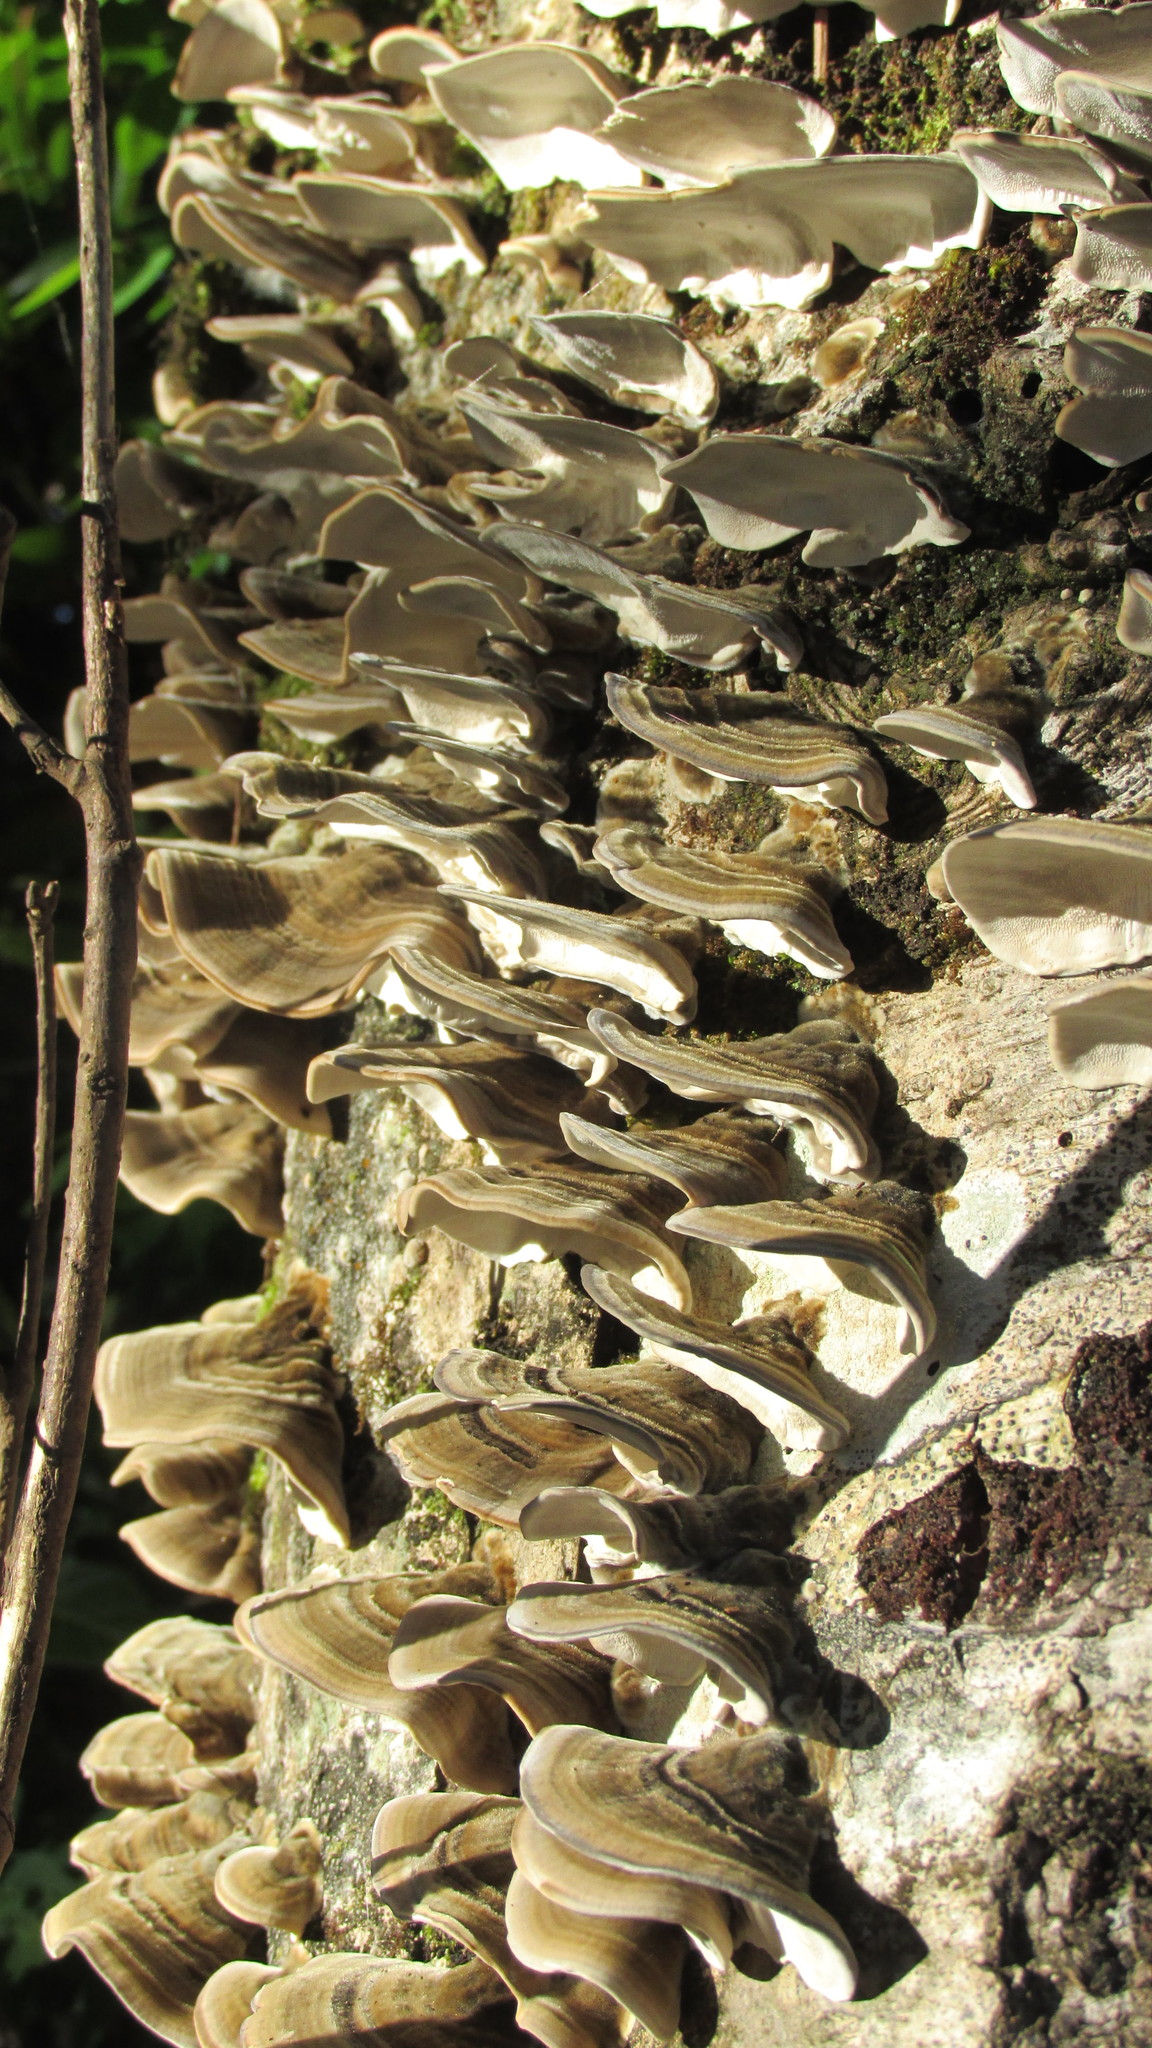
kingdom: Fungi
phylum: Basidiomycota
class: Agaricomycetes
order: Polyporales
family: Polyporaceae
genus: Trametes
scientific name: Trametes versicolor
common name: Turkeytail
